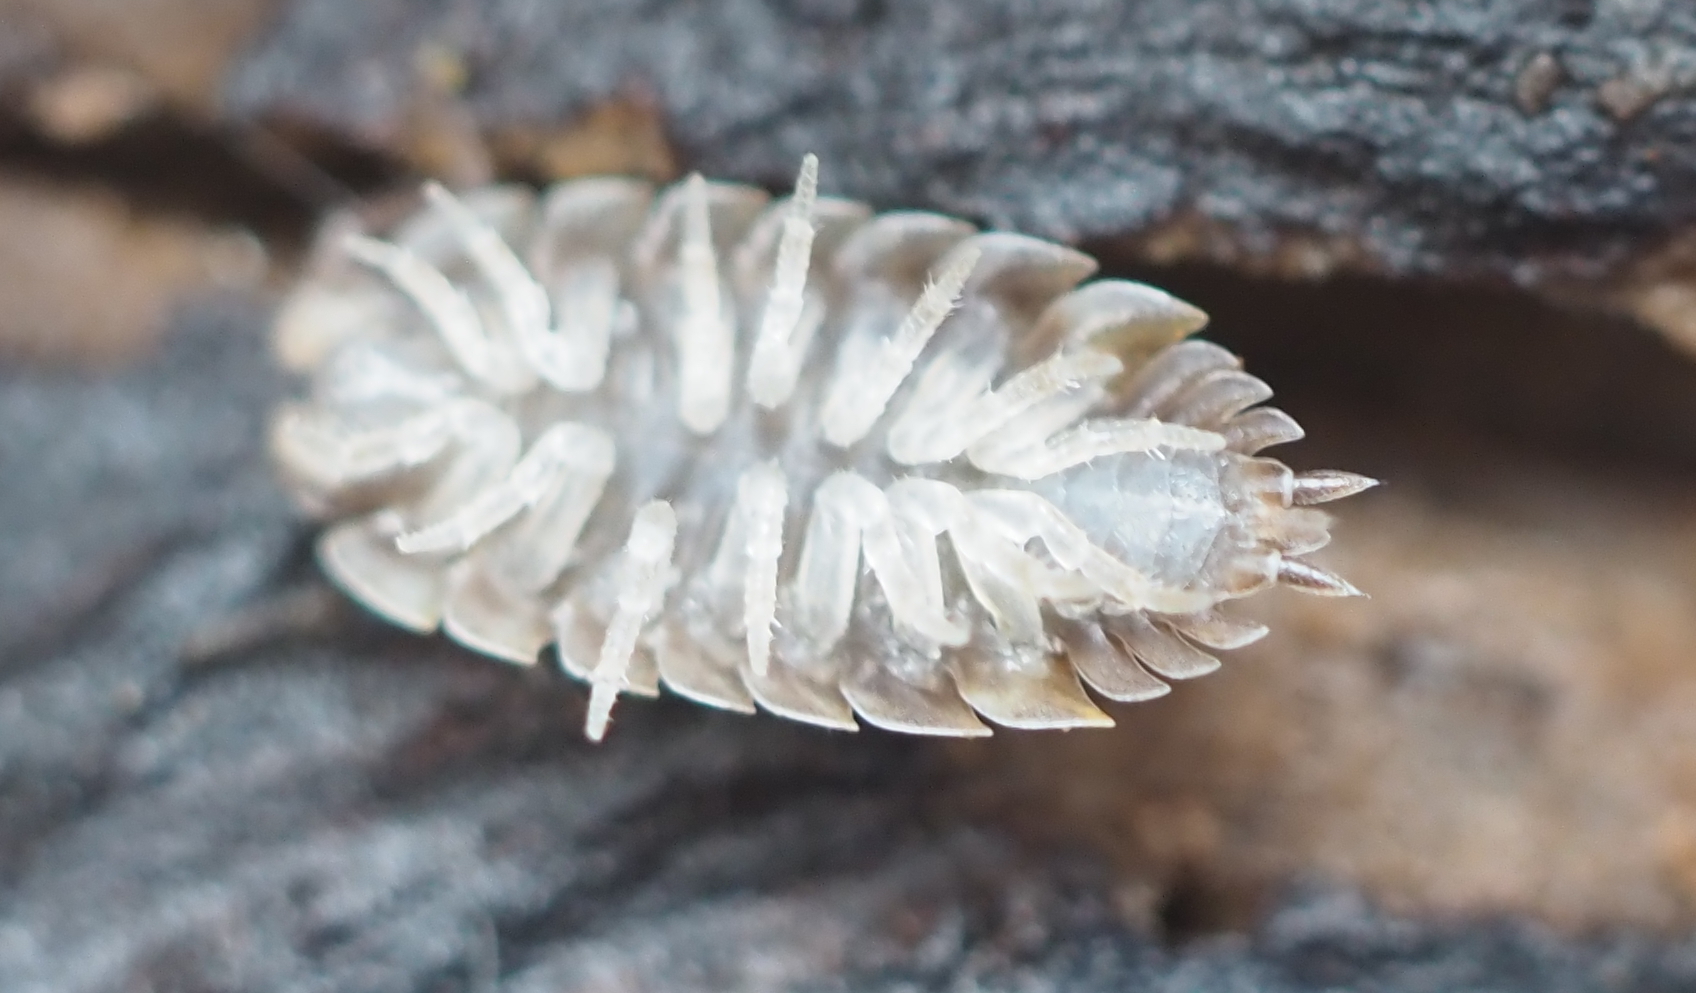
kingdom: Animalia
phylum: Arthropoda
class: Malacostraca
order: Isopoda
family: Trachelipodidae
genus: Trachelipus
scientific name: Trachelipus rathkii
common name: Isopod
